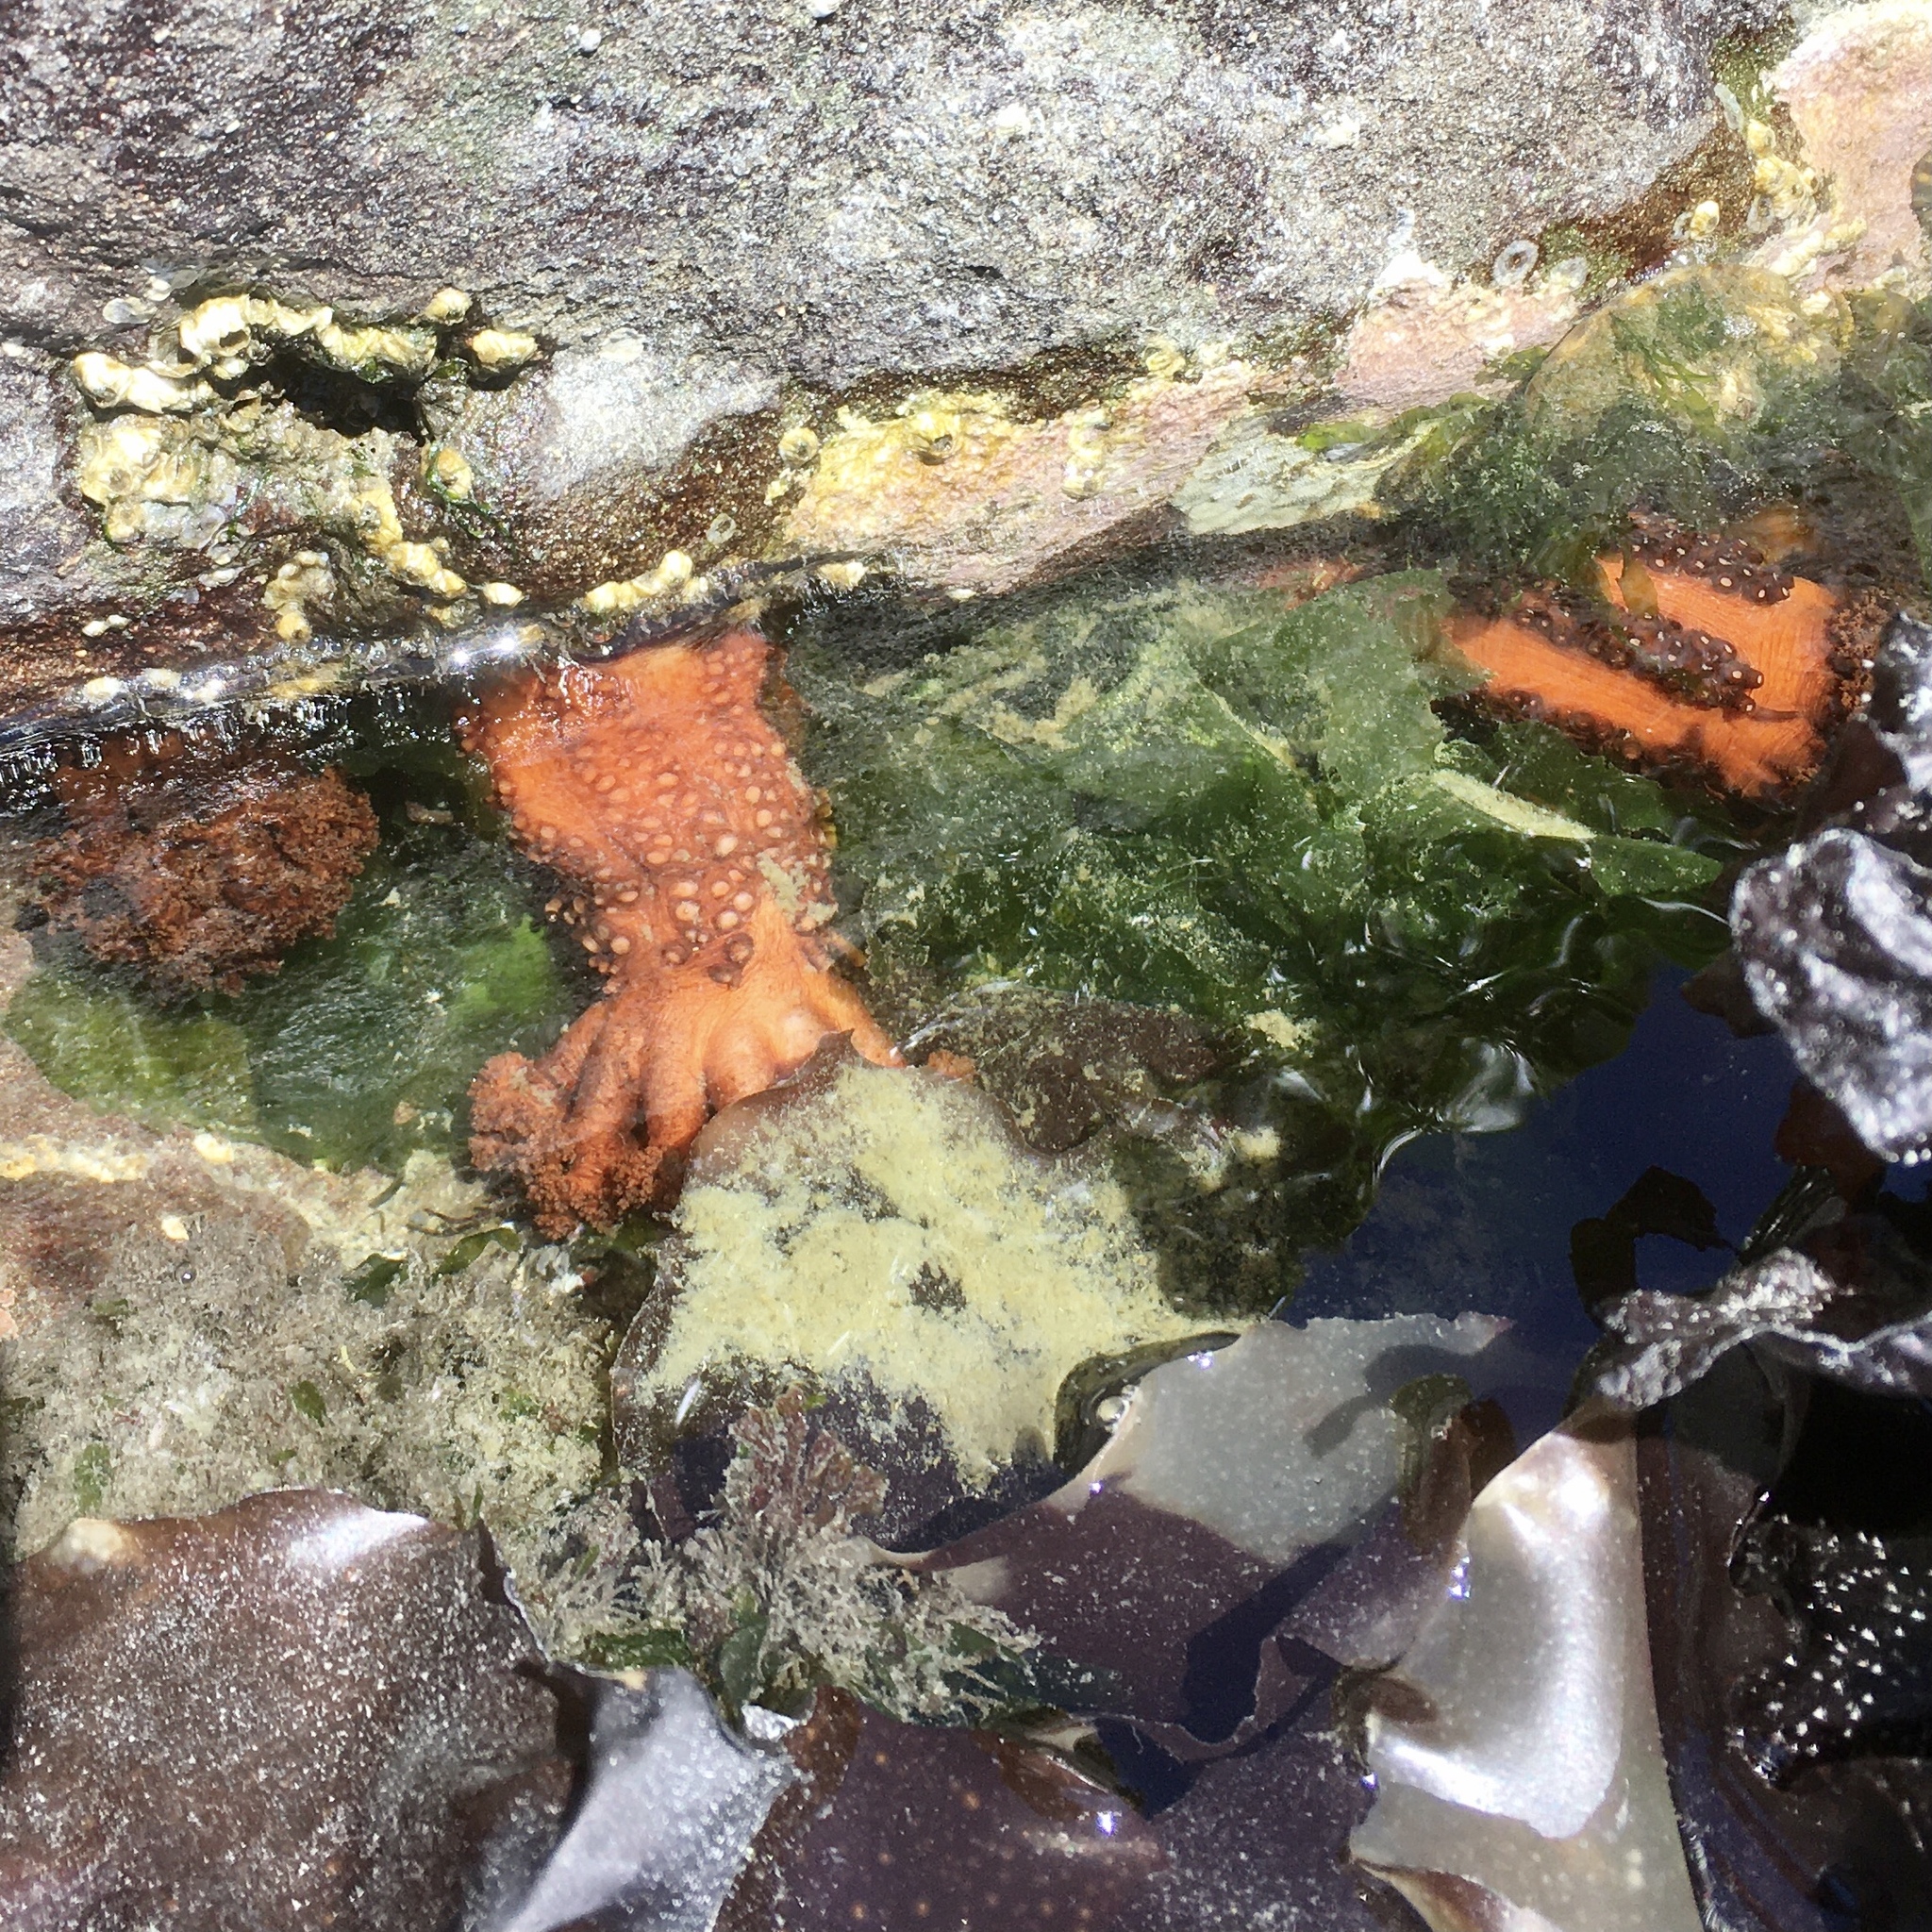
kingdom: Animalia
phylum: Echinodermata
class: Holothuroidea
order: Dendrochirotida
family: Cucumariidae
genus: Cucumaria
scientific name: Cucumaria miniata
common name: Orange sea cucumber
